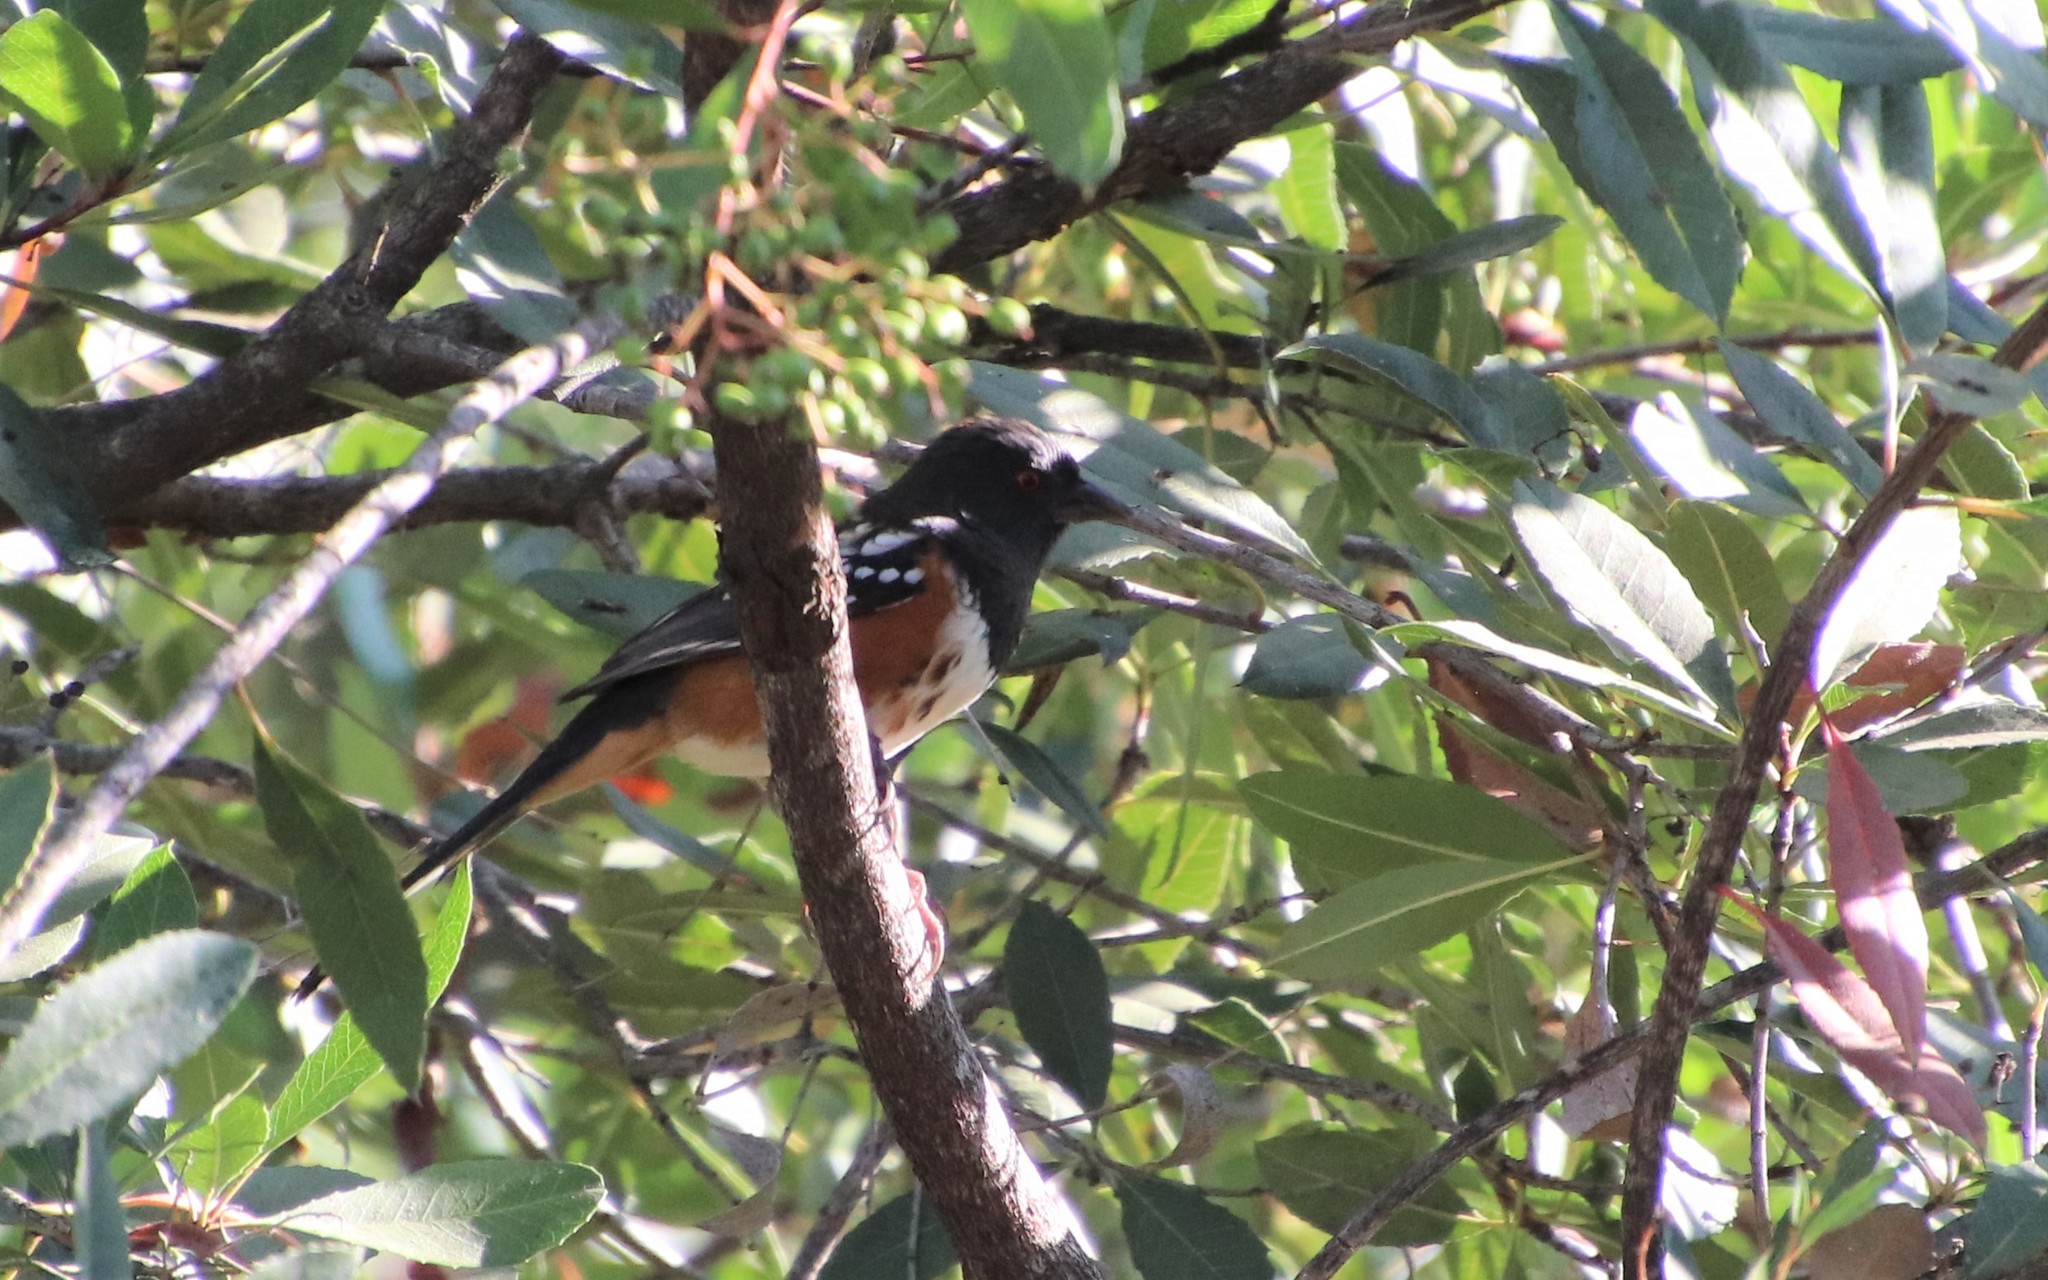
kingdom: Animalia
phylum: Chordata
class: Aves
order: Passeriformes
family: Passerellidae
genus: Pipilo
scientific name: Pipilo maculatus
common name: Spotted towhee
